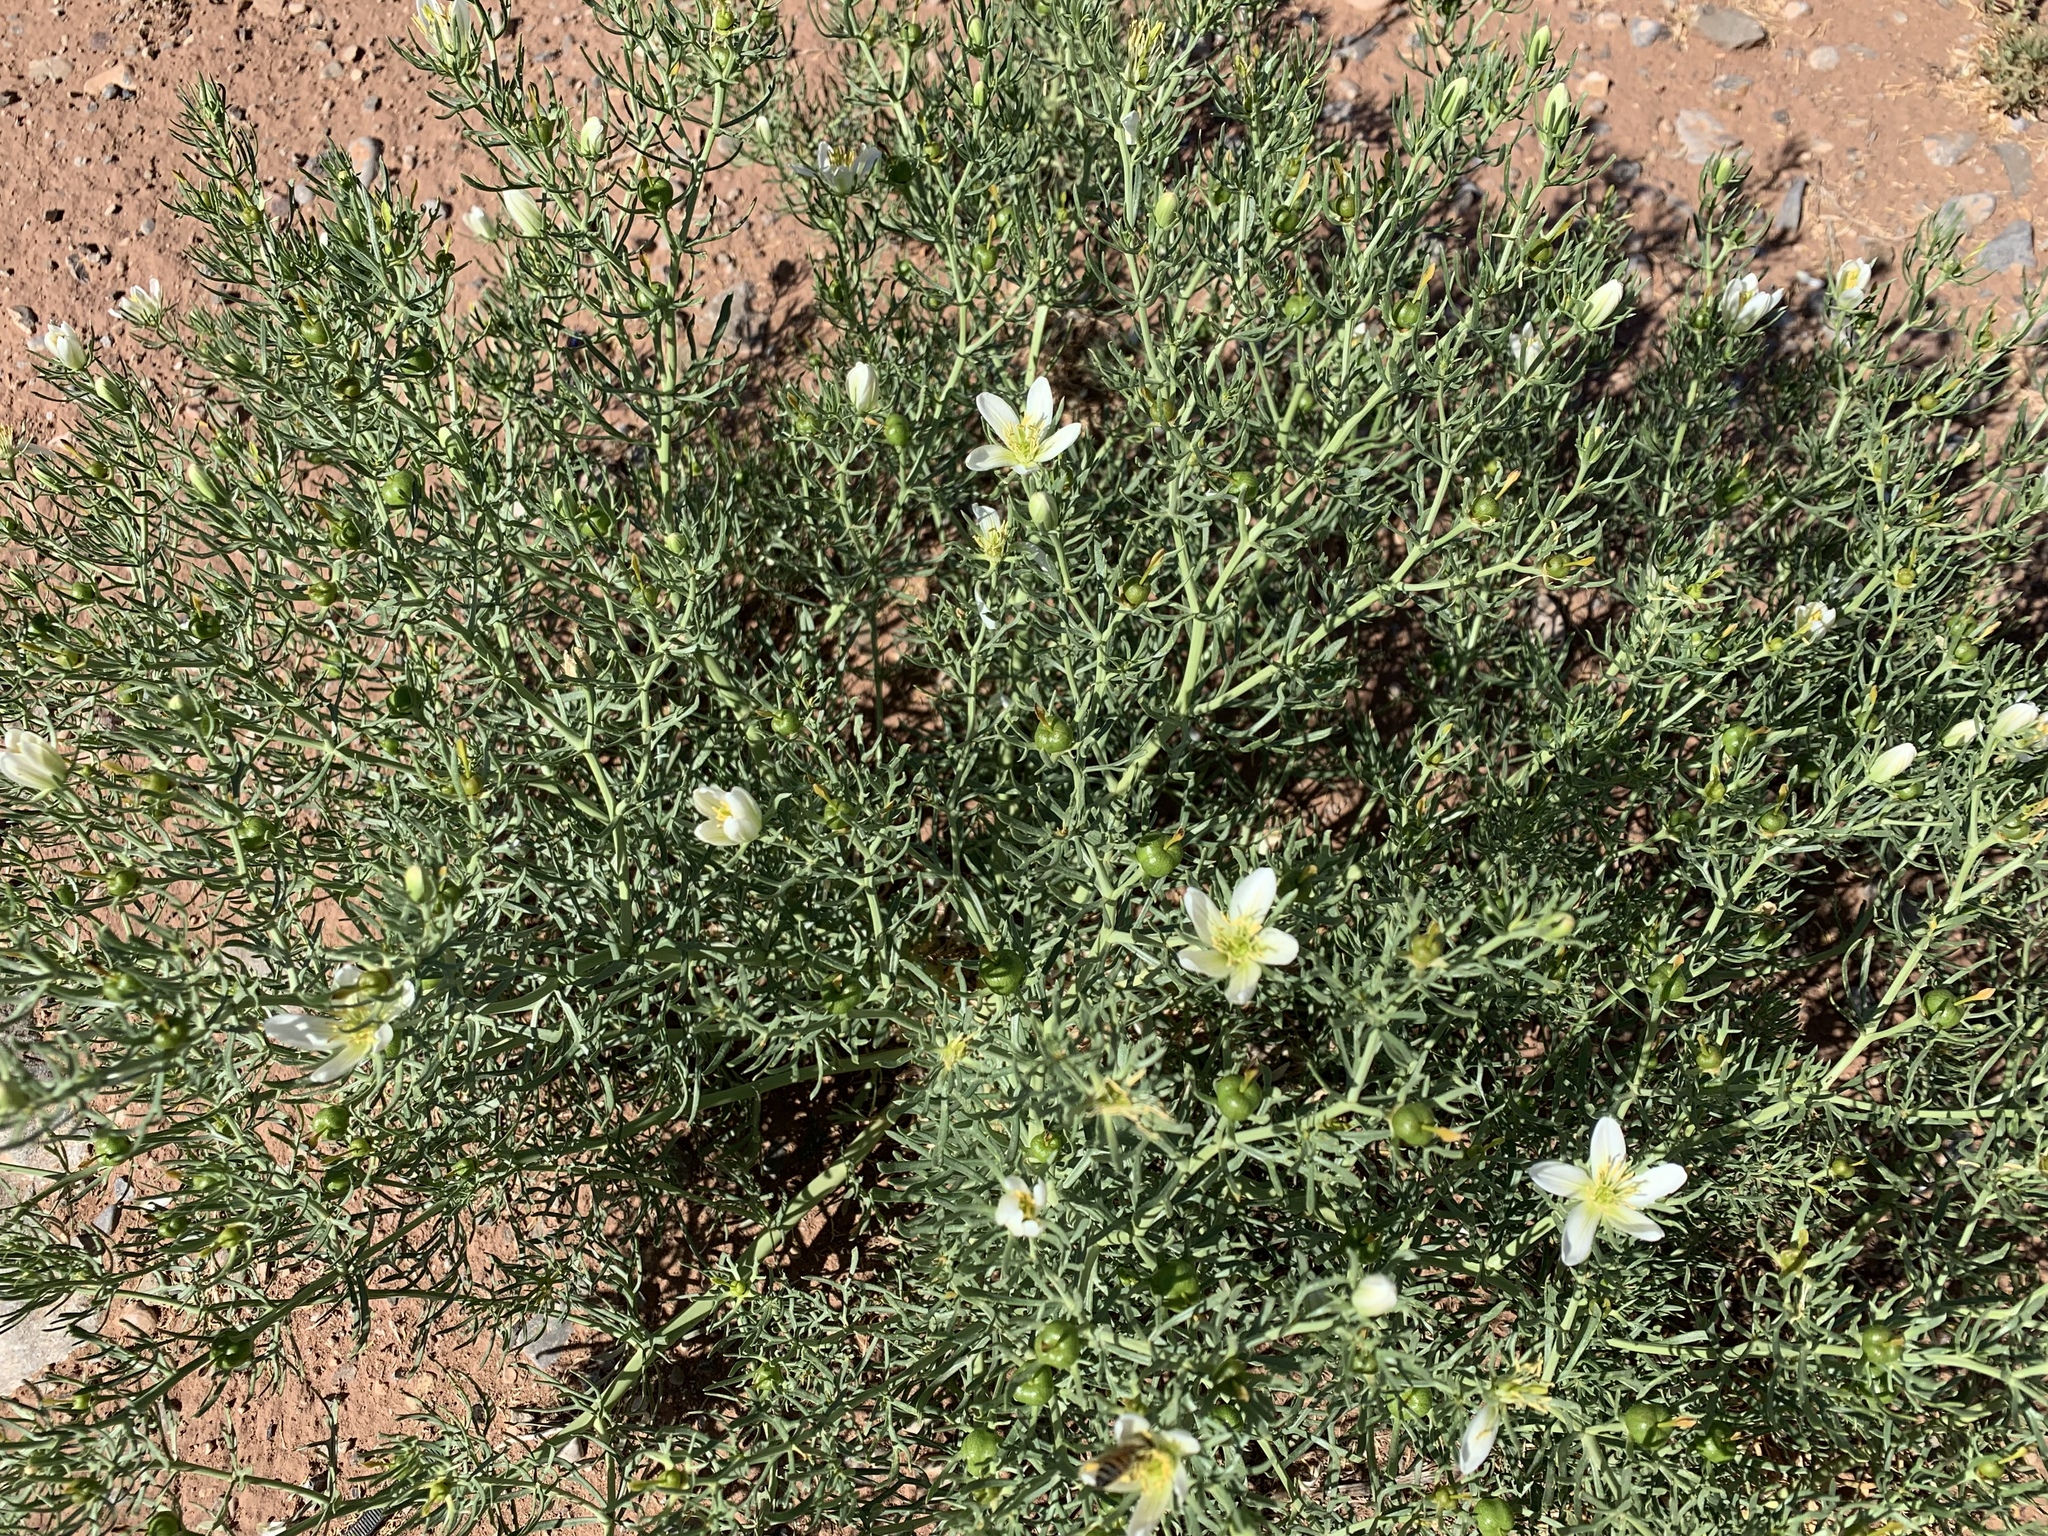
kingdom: Plantae
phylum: Tracheophyta
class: Magnoliopsida
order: Sapindales
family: Tetradiclidaceae
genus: Peganum
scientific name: Peganum harmala
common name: Harmal peganum
